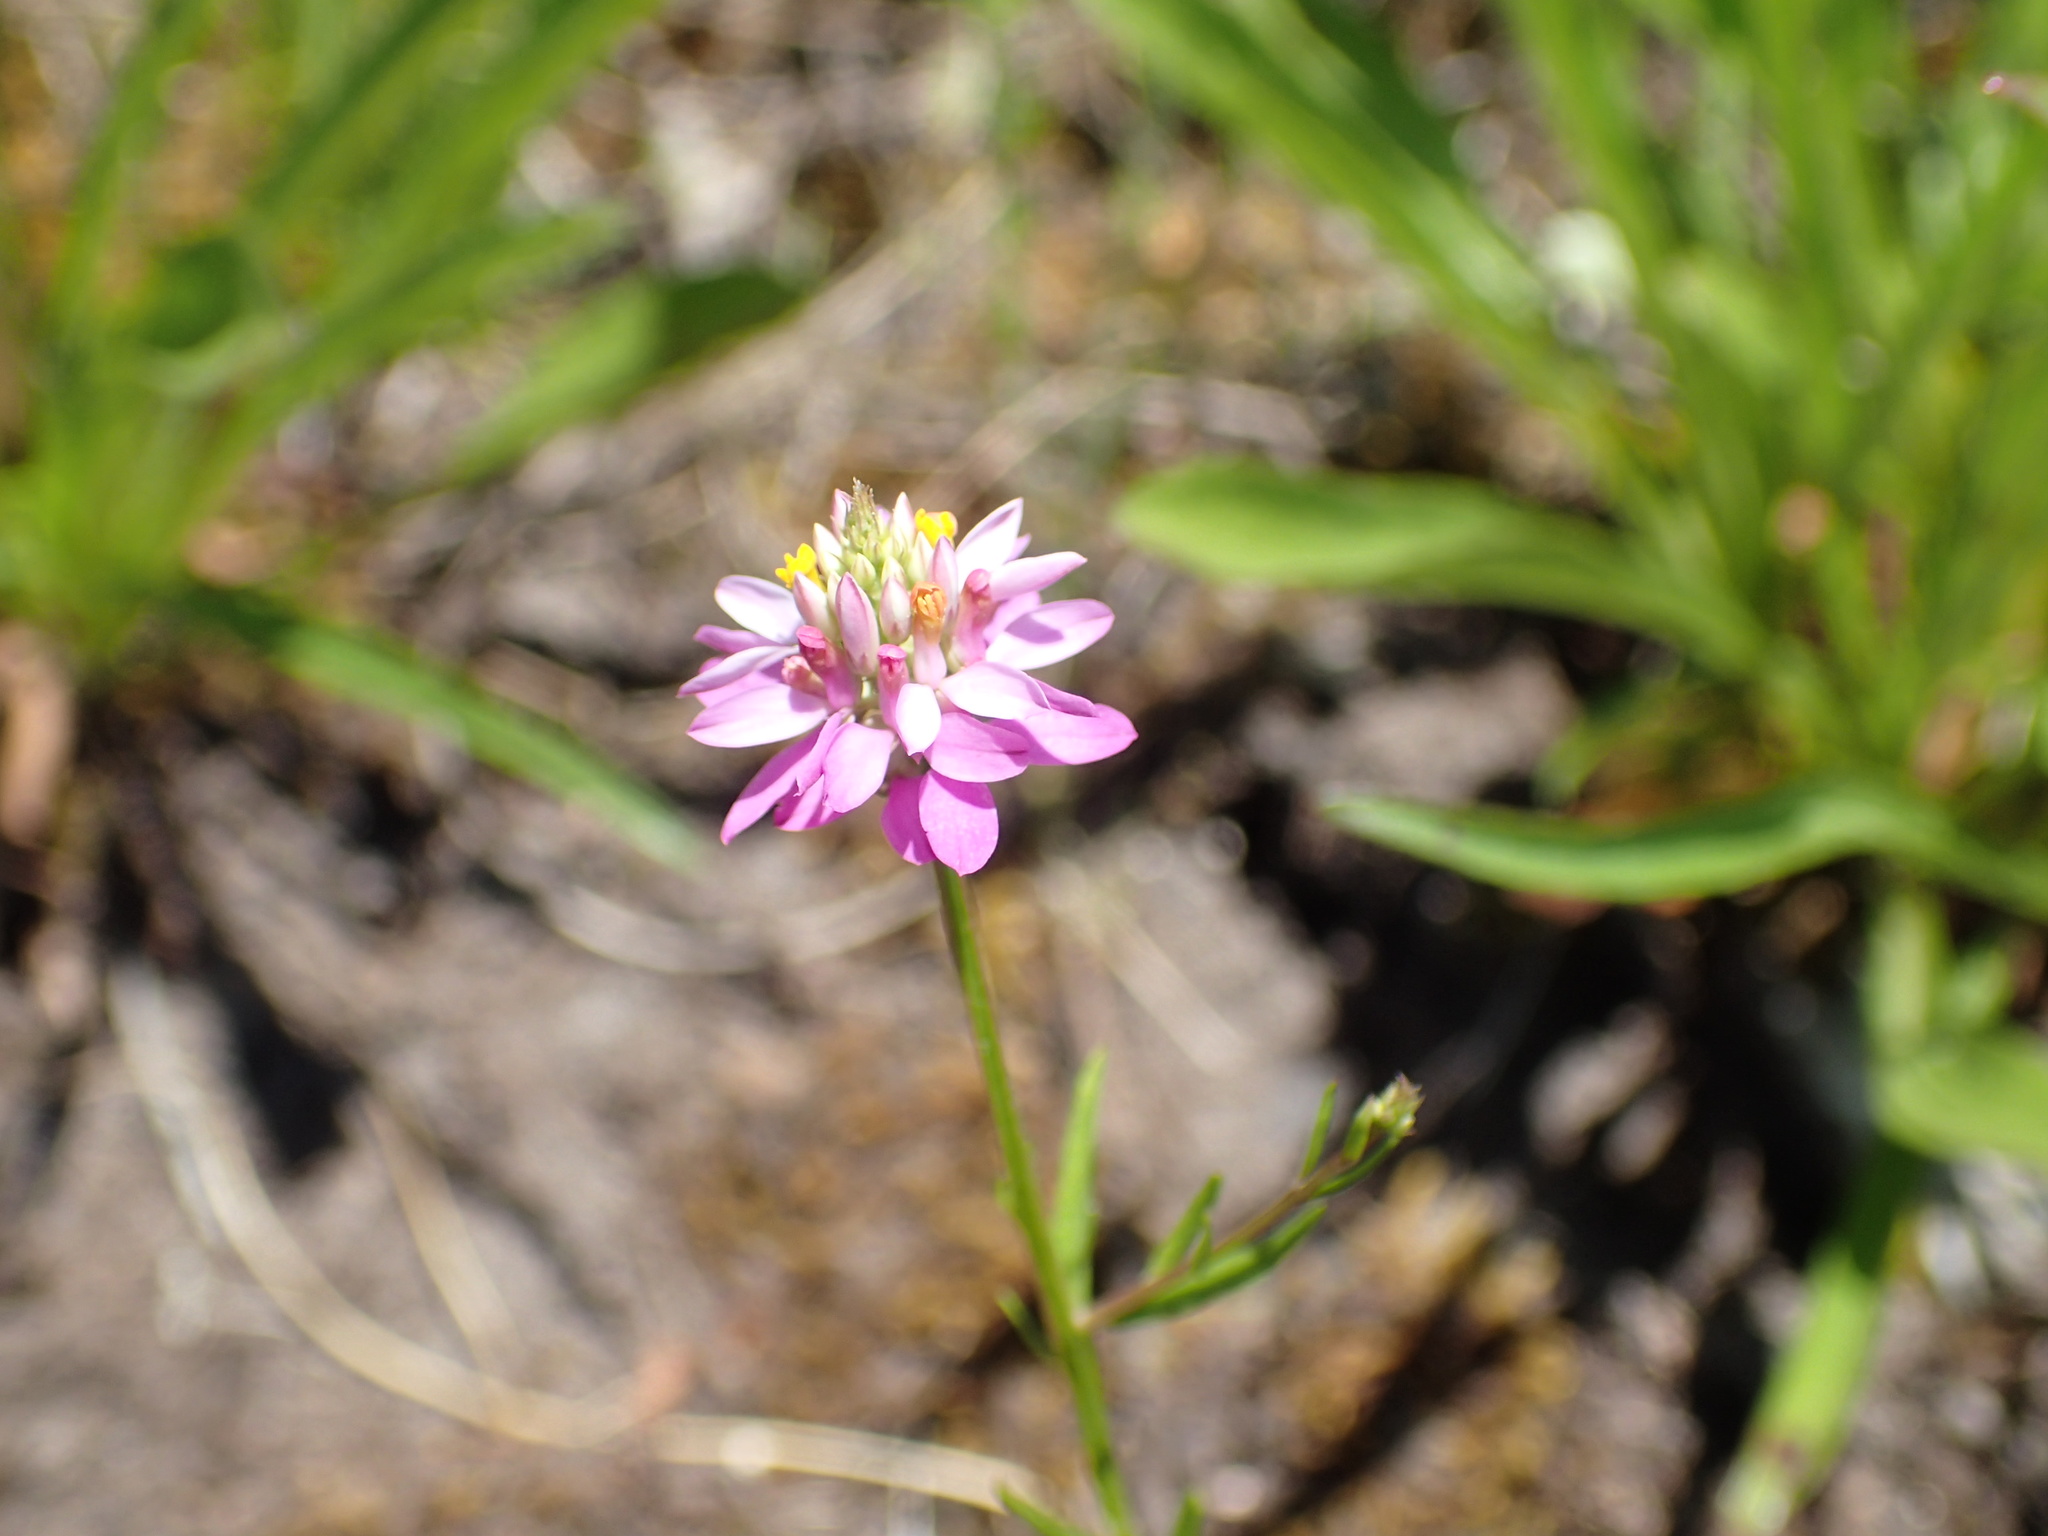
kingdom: Plantae
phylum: Tracheophyta
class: Magnoliopsida
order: Fabales
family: Polygalaceae
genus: Polygala
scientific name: Polygala curtissii
